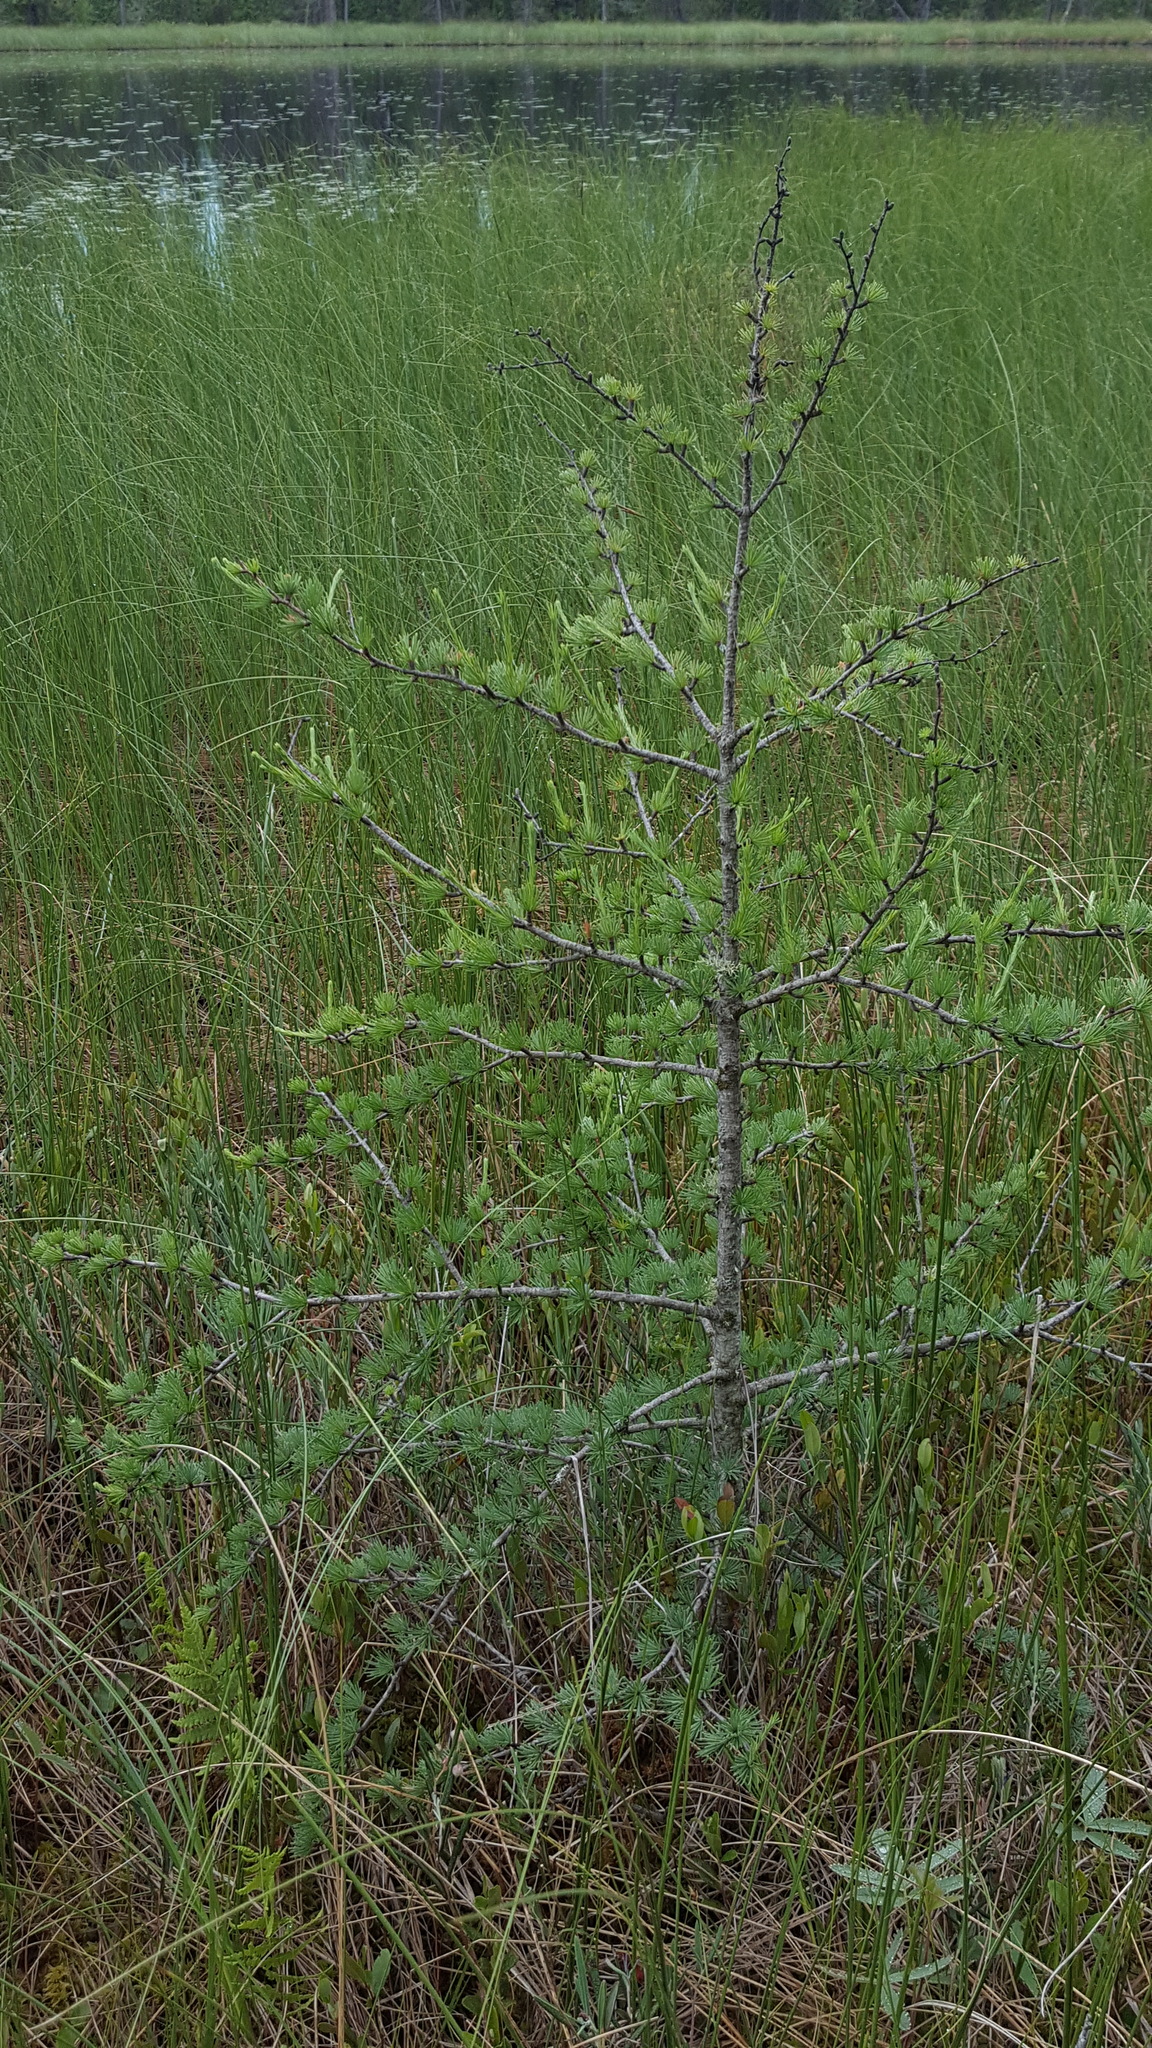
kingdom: Plantae
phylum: Tracheophyta
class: Pinopsida
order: Pinales
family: Pinaceae
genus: Larix
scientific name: Larix laricina
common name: American larch
